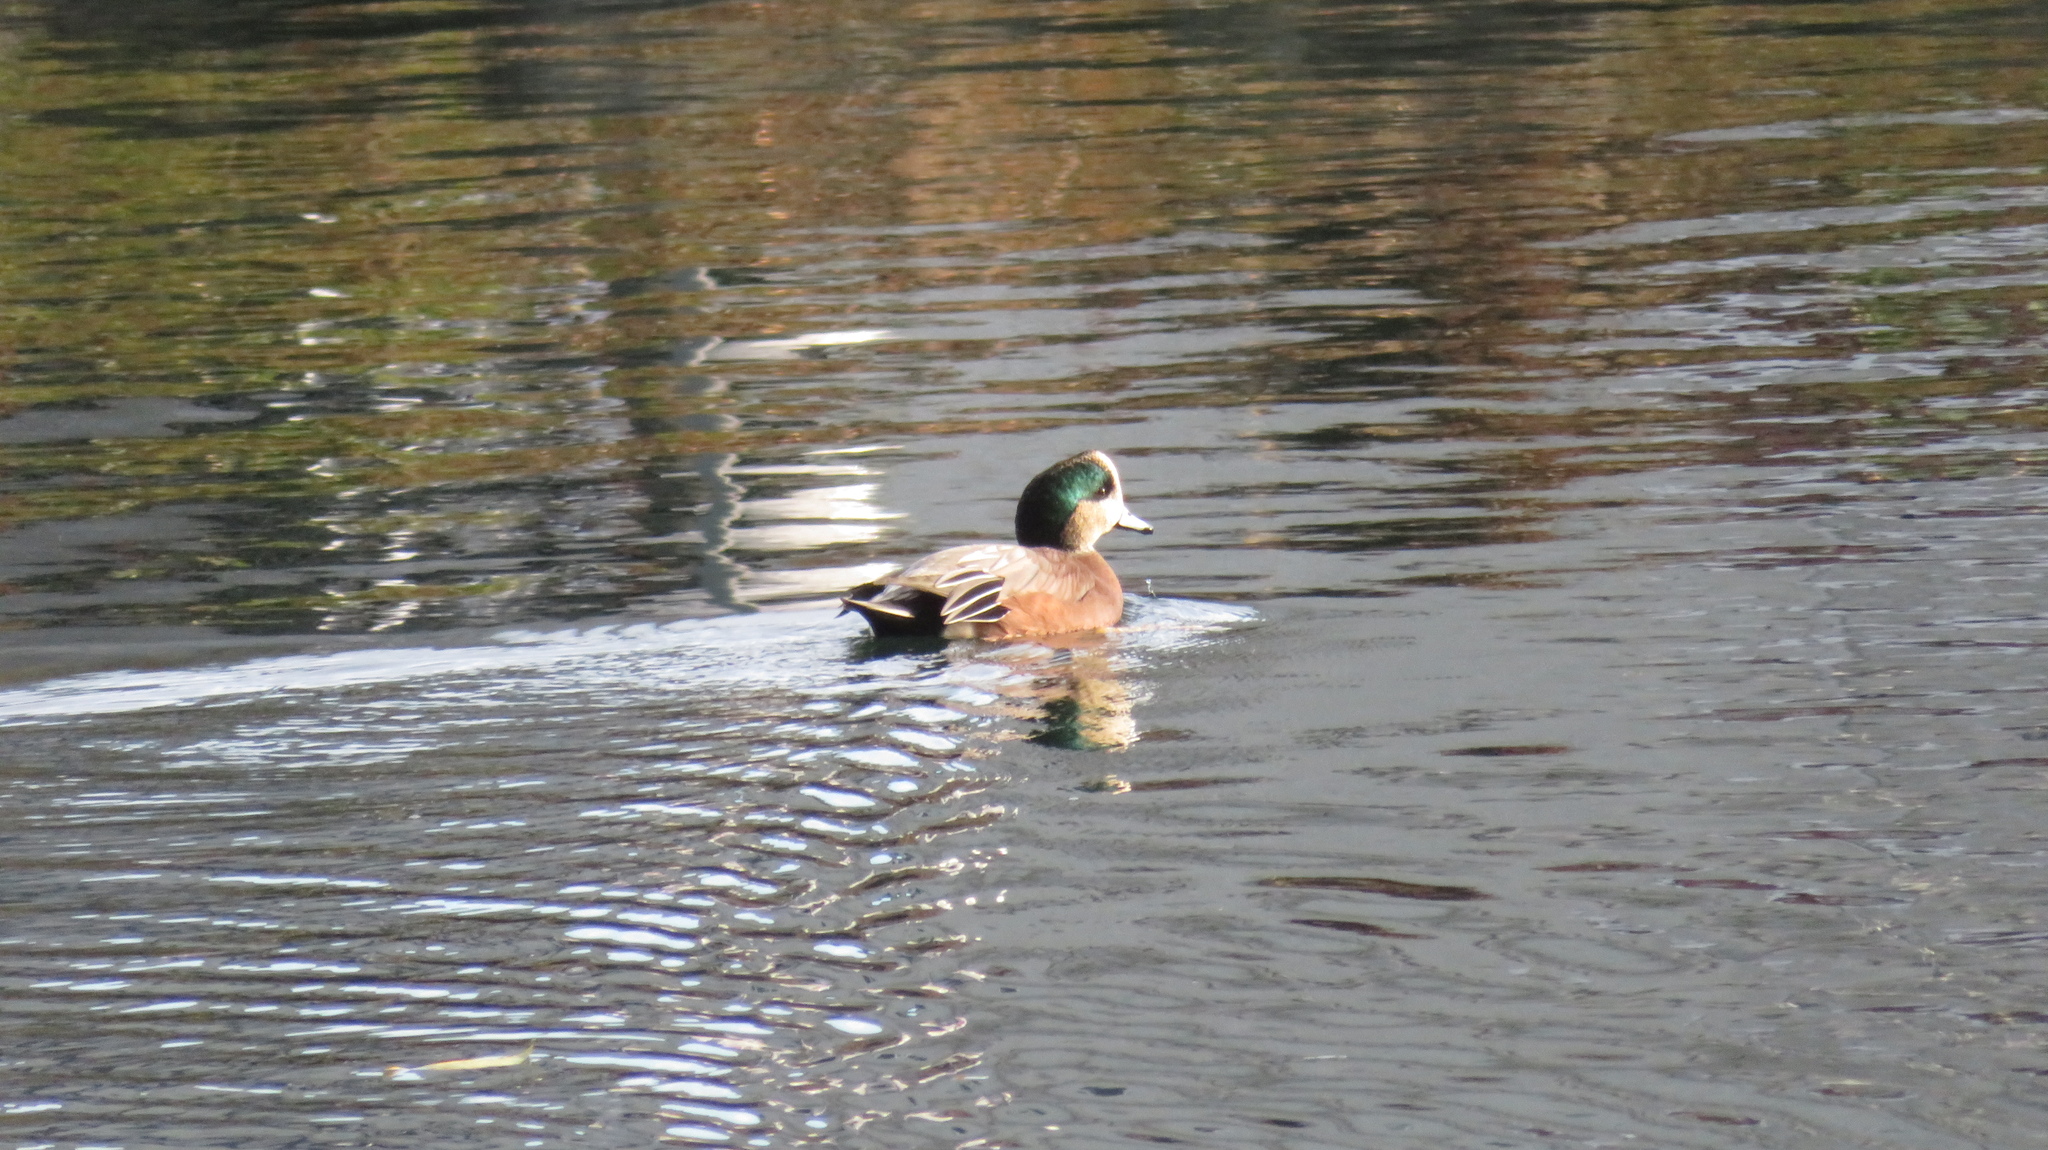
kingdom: Animalia
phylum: Chordata
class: Aves
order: Anseriformes
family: Anatidae
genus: Mareca
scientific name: Mareca americana
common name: American wigeon
